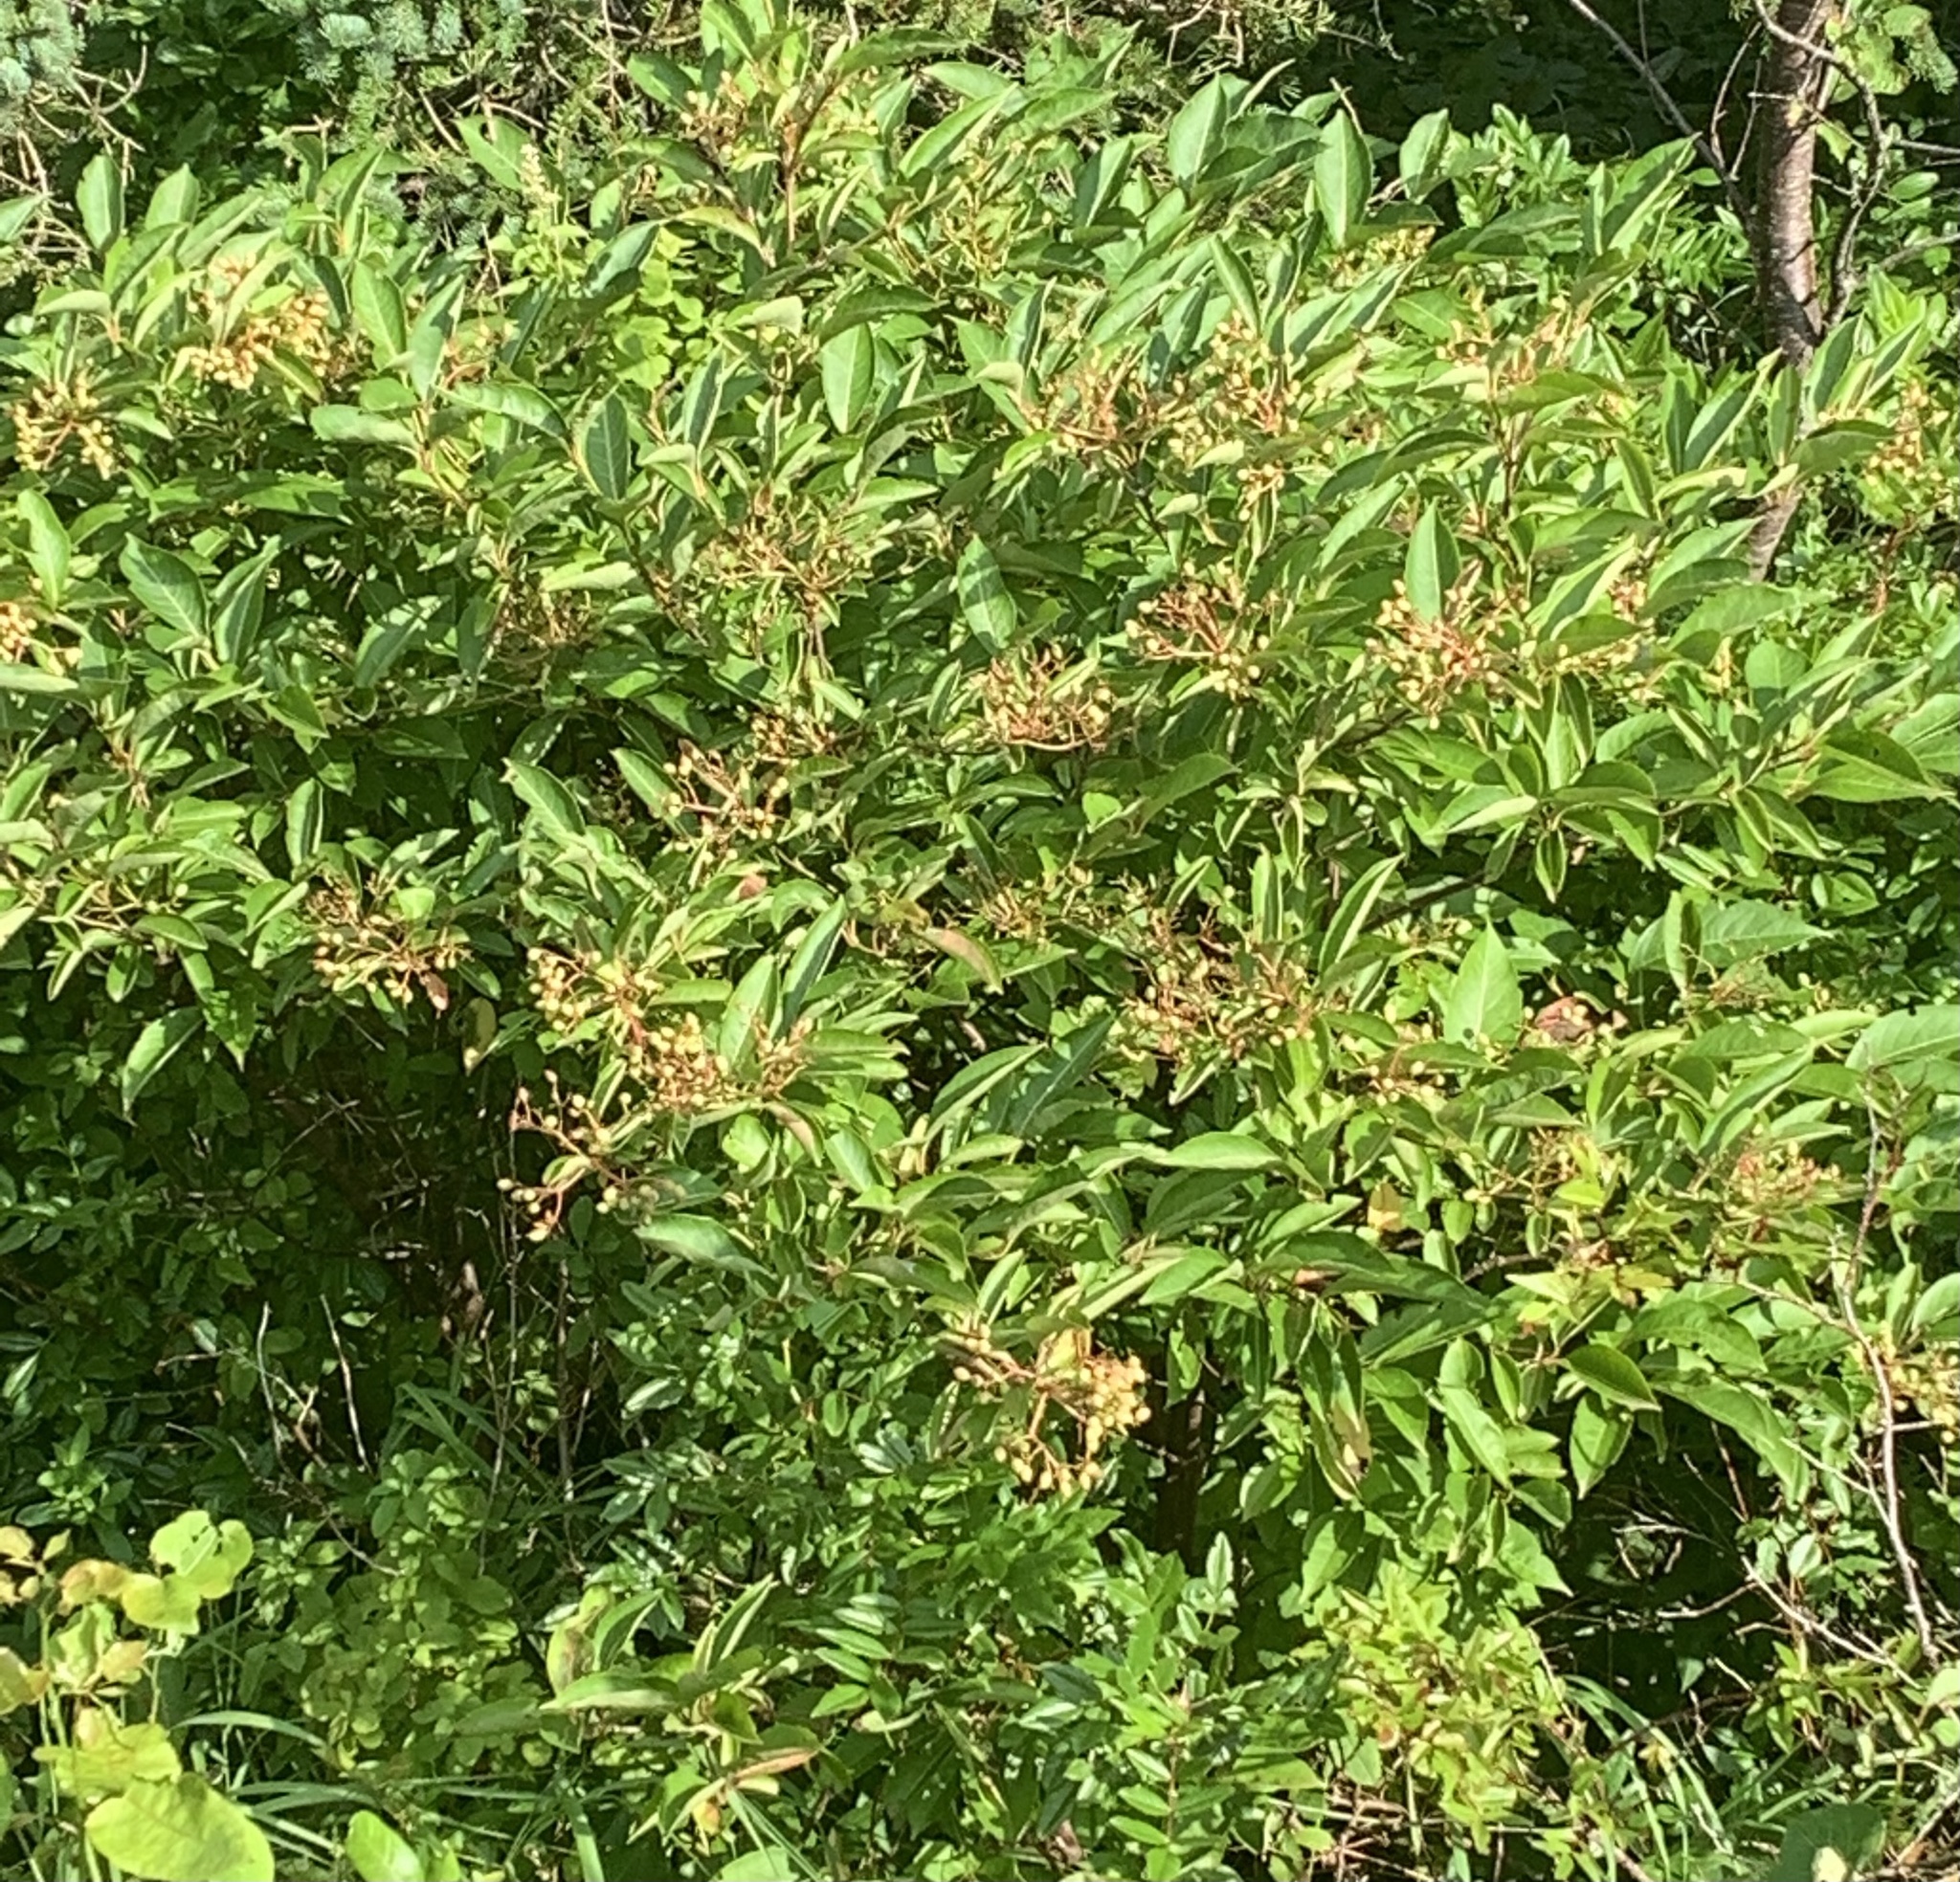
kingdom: Plantae
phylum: Tracheophyta
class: Magnoliopsida
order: Dipsacales
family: Viburnaceae
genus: Viburnum
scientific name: Viburnum cassinoides
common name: Swamp haw
